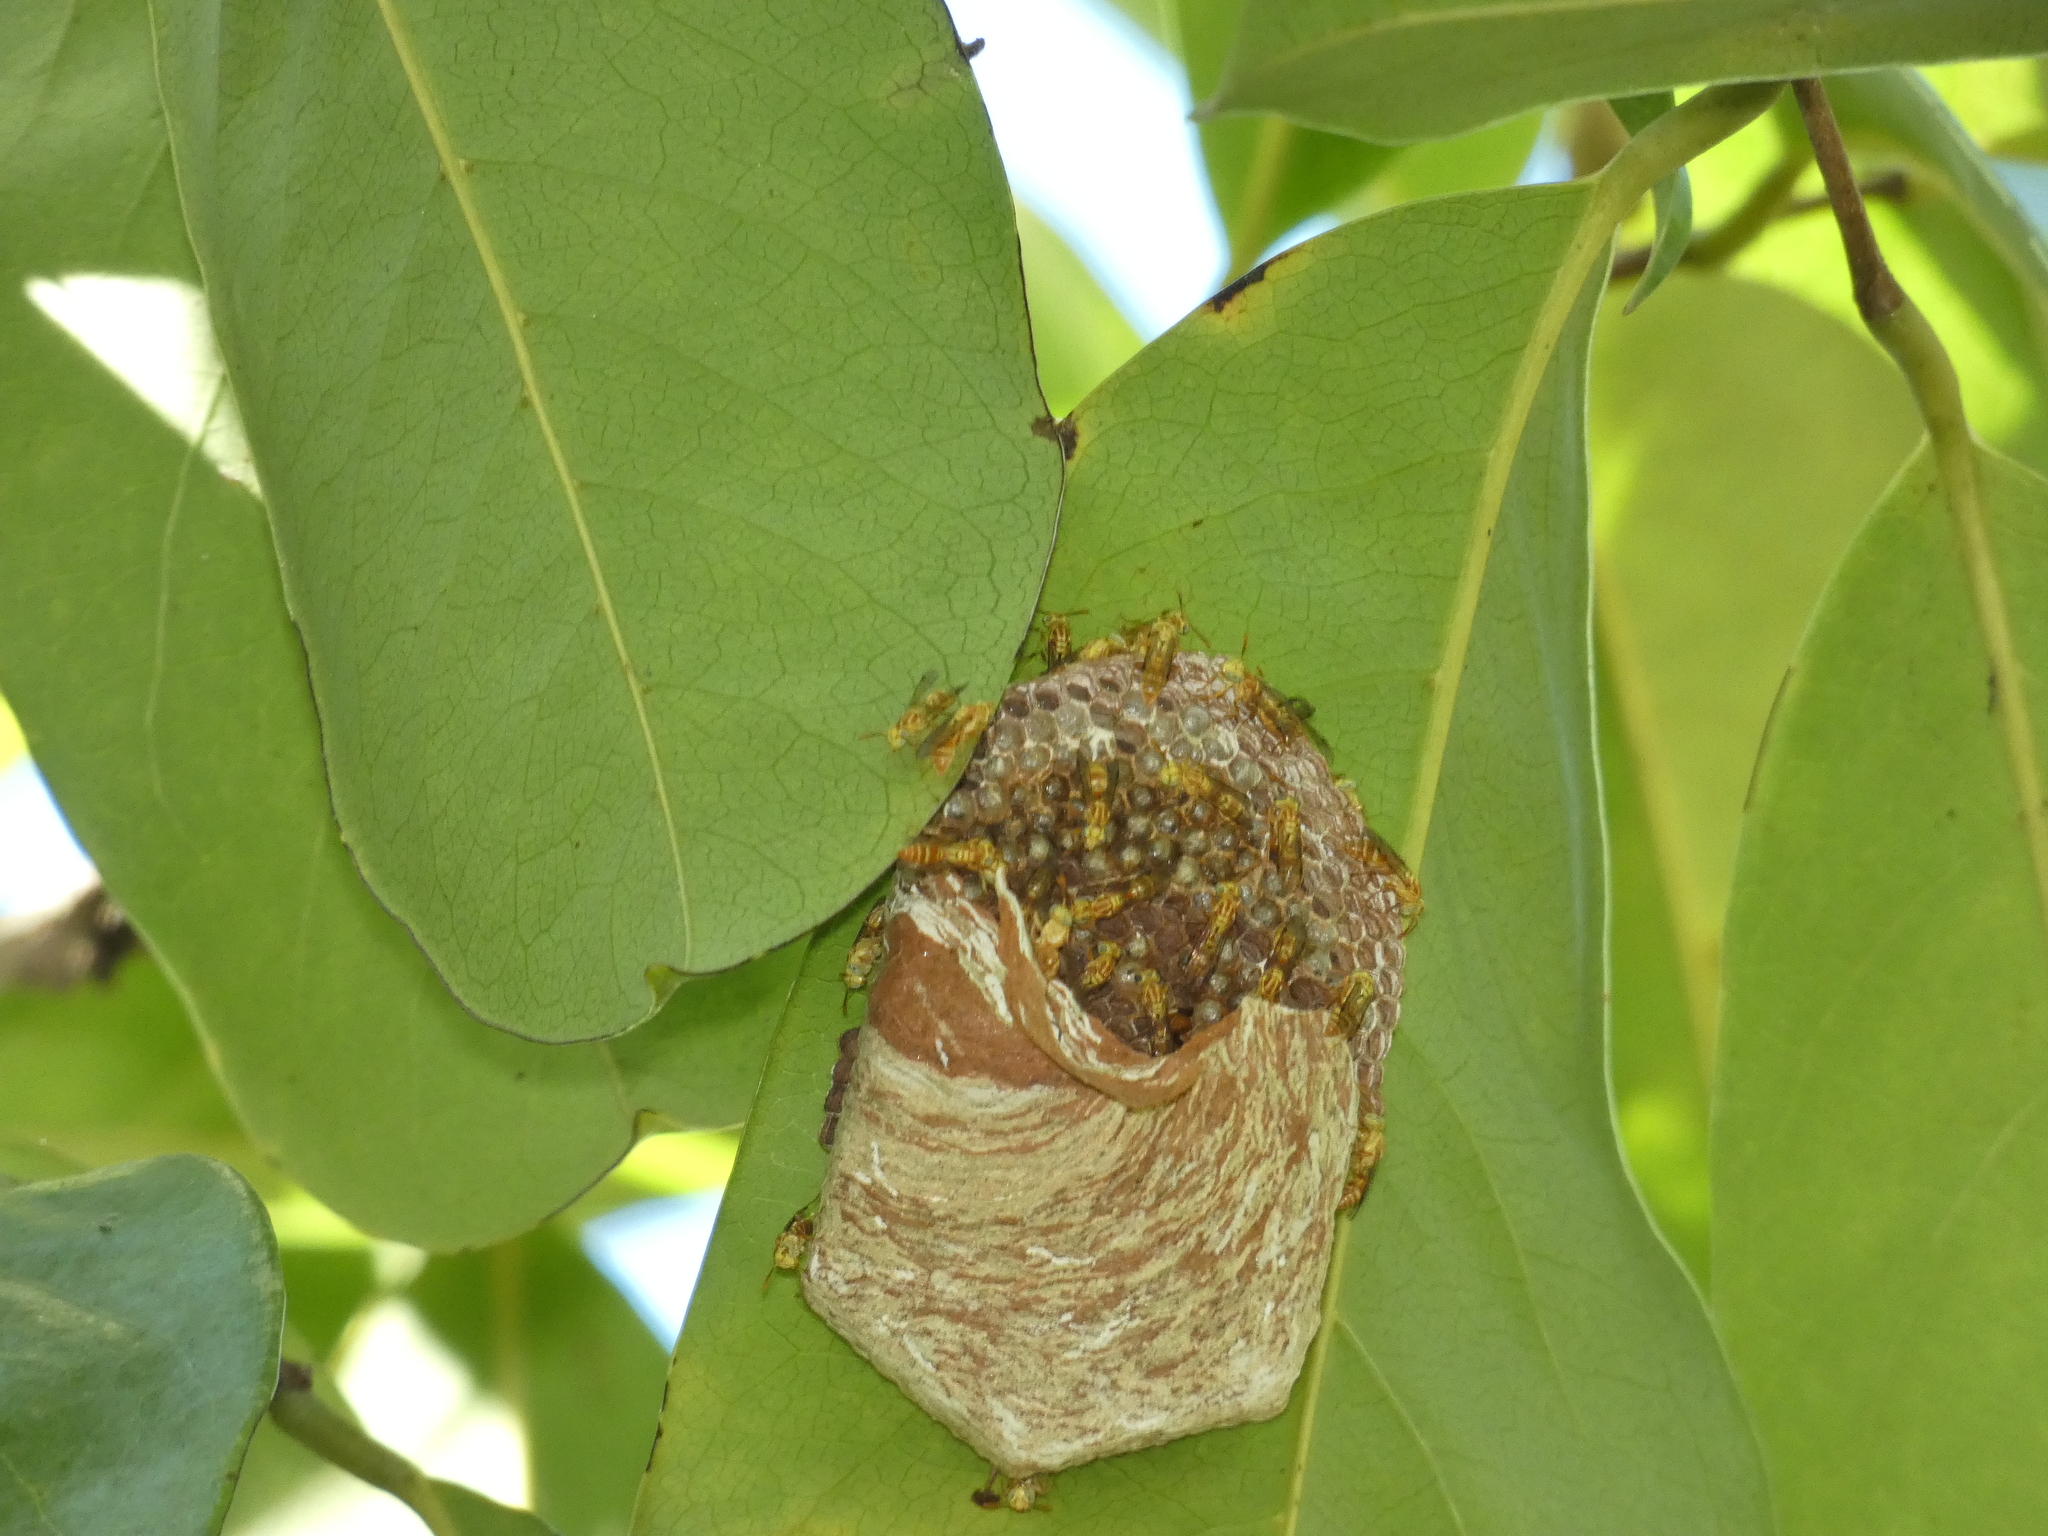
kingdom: Animalia
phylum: Arthropoda
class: Insecta
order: Hymenoptera
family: Vespidae
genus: Protopolybia
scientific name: Protopolybia potiguara
